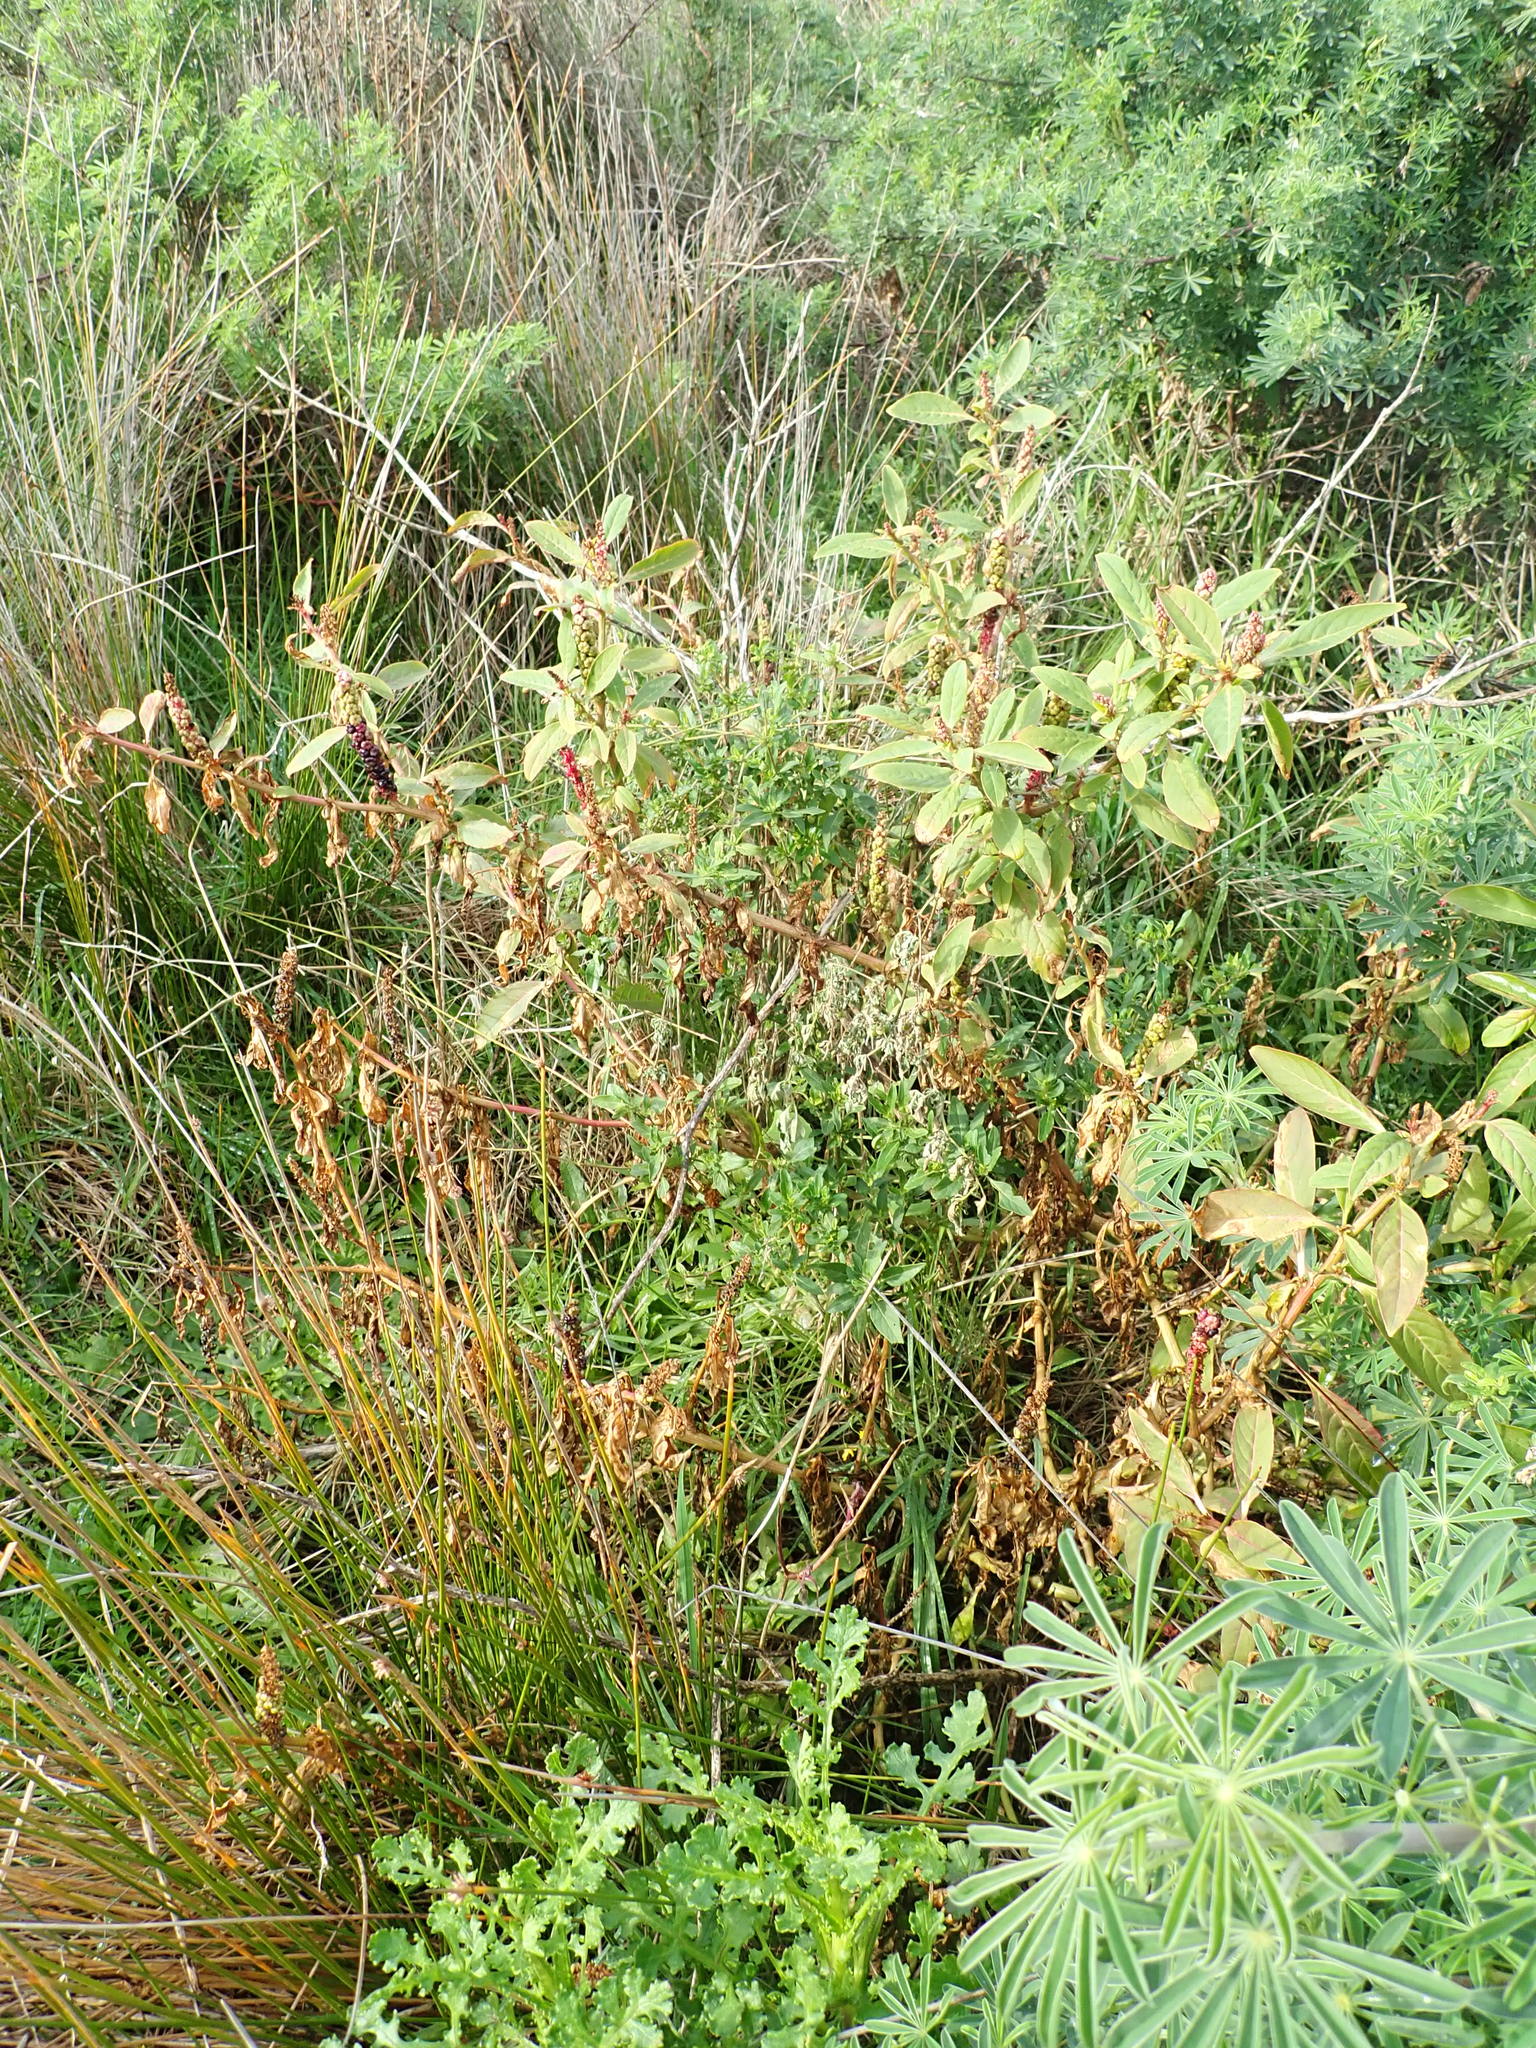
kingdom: Plantae
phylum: Tracheophyta
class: Magnoliopsida
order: Caryophyllales
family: Phytolaccaceae
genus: Phytolacca
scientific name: Phytolacca icosandra
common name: Button pokeweed
